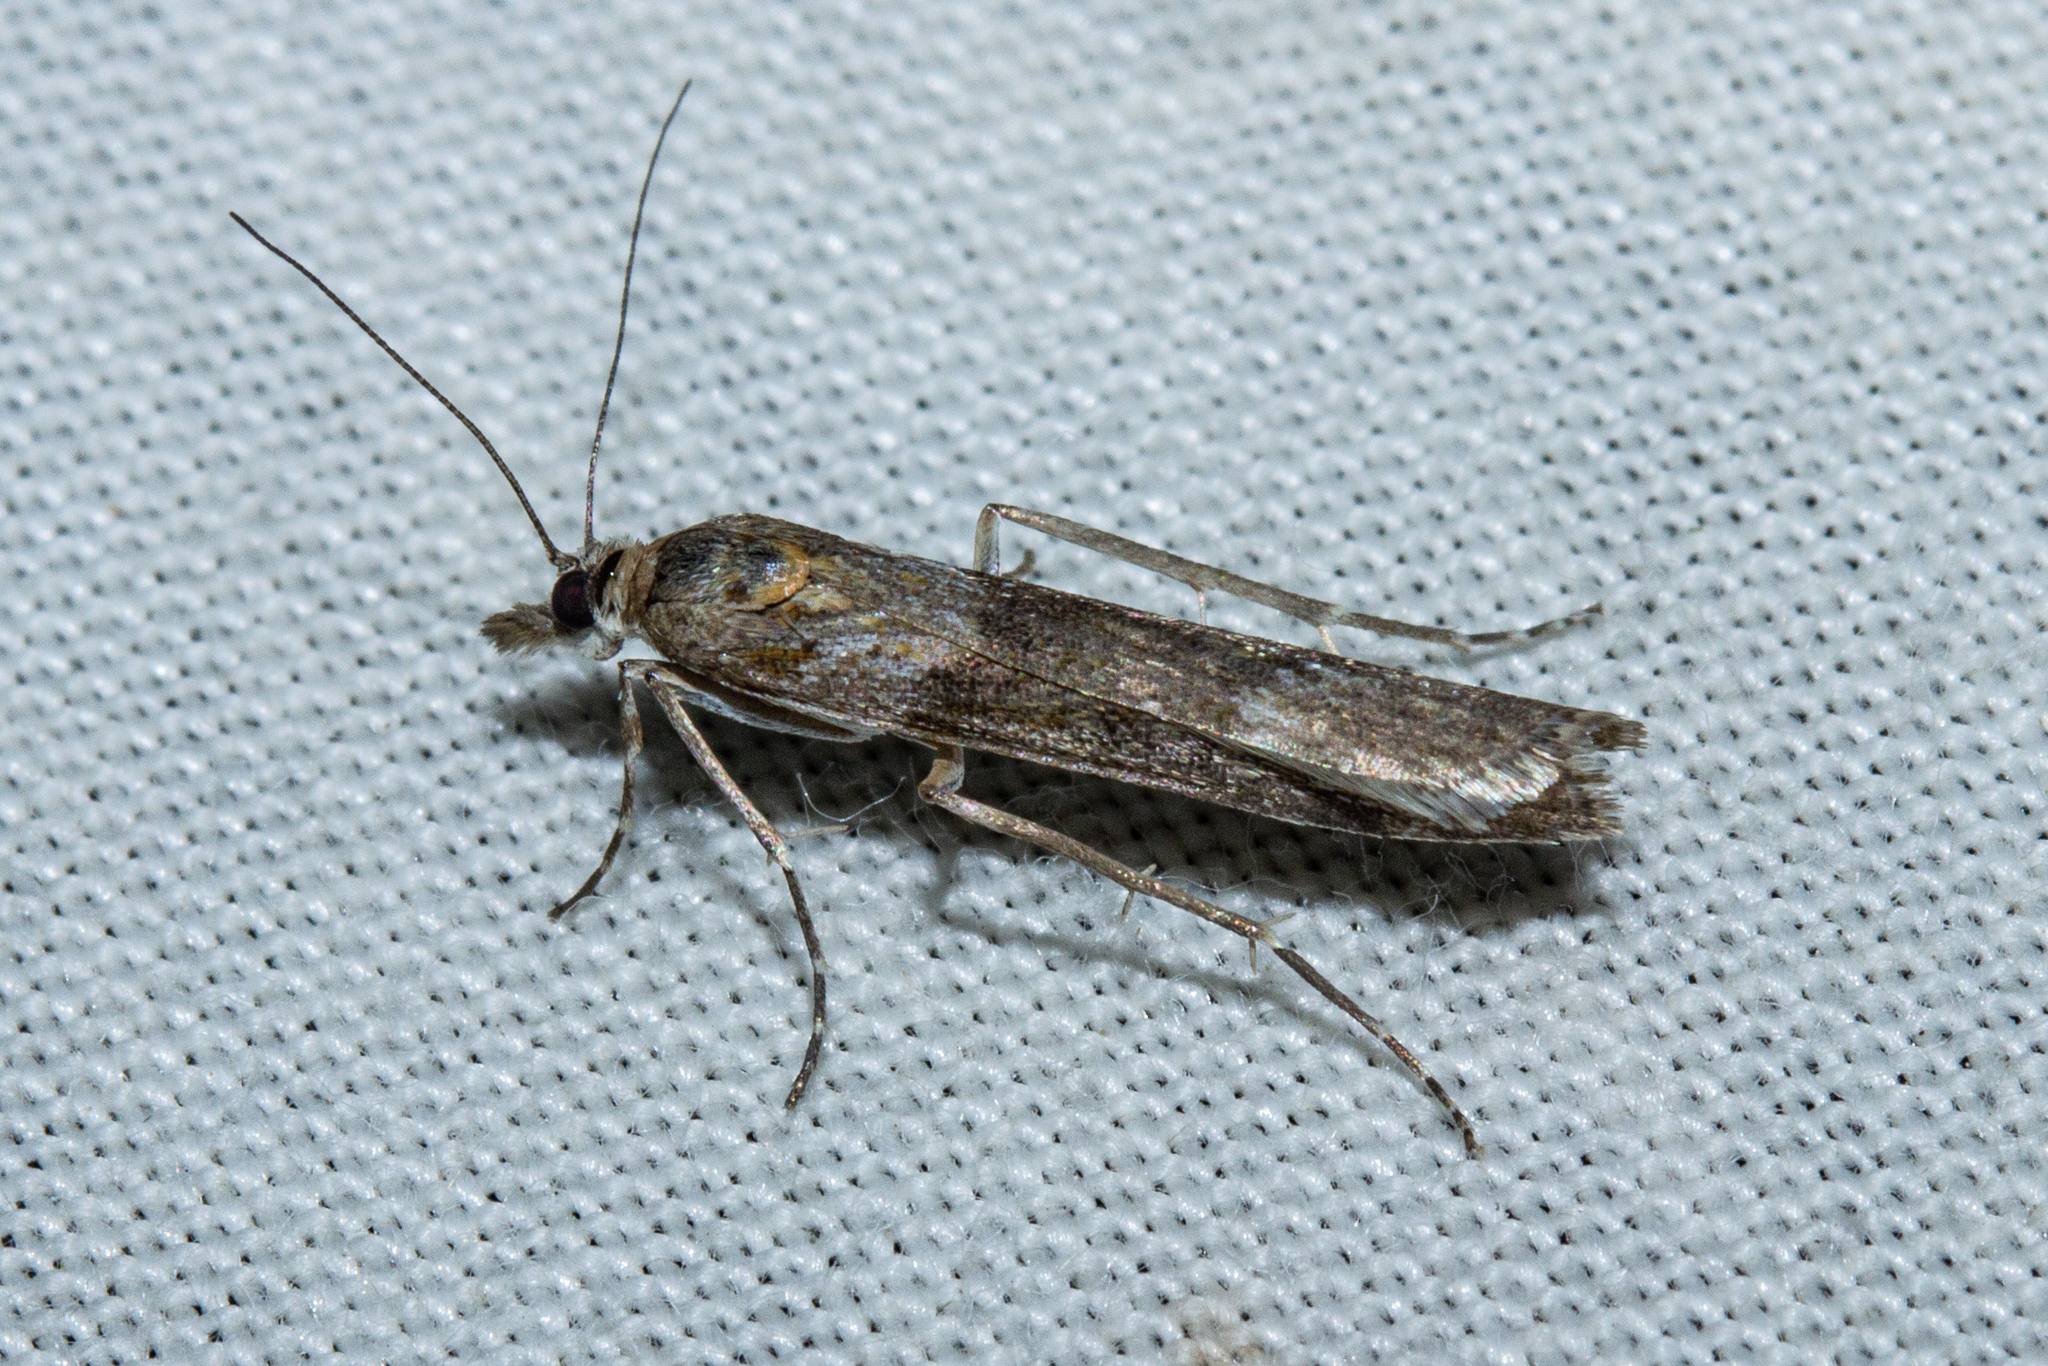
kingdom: Animalia
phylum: Arthropoda
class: Insecta
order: Lepidoptera
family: Crambidae
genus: Eudonia
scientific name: Eudonia leptalea
